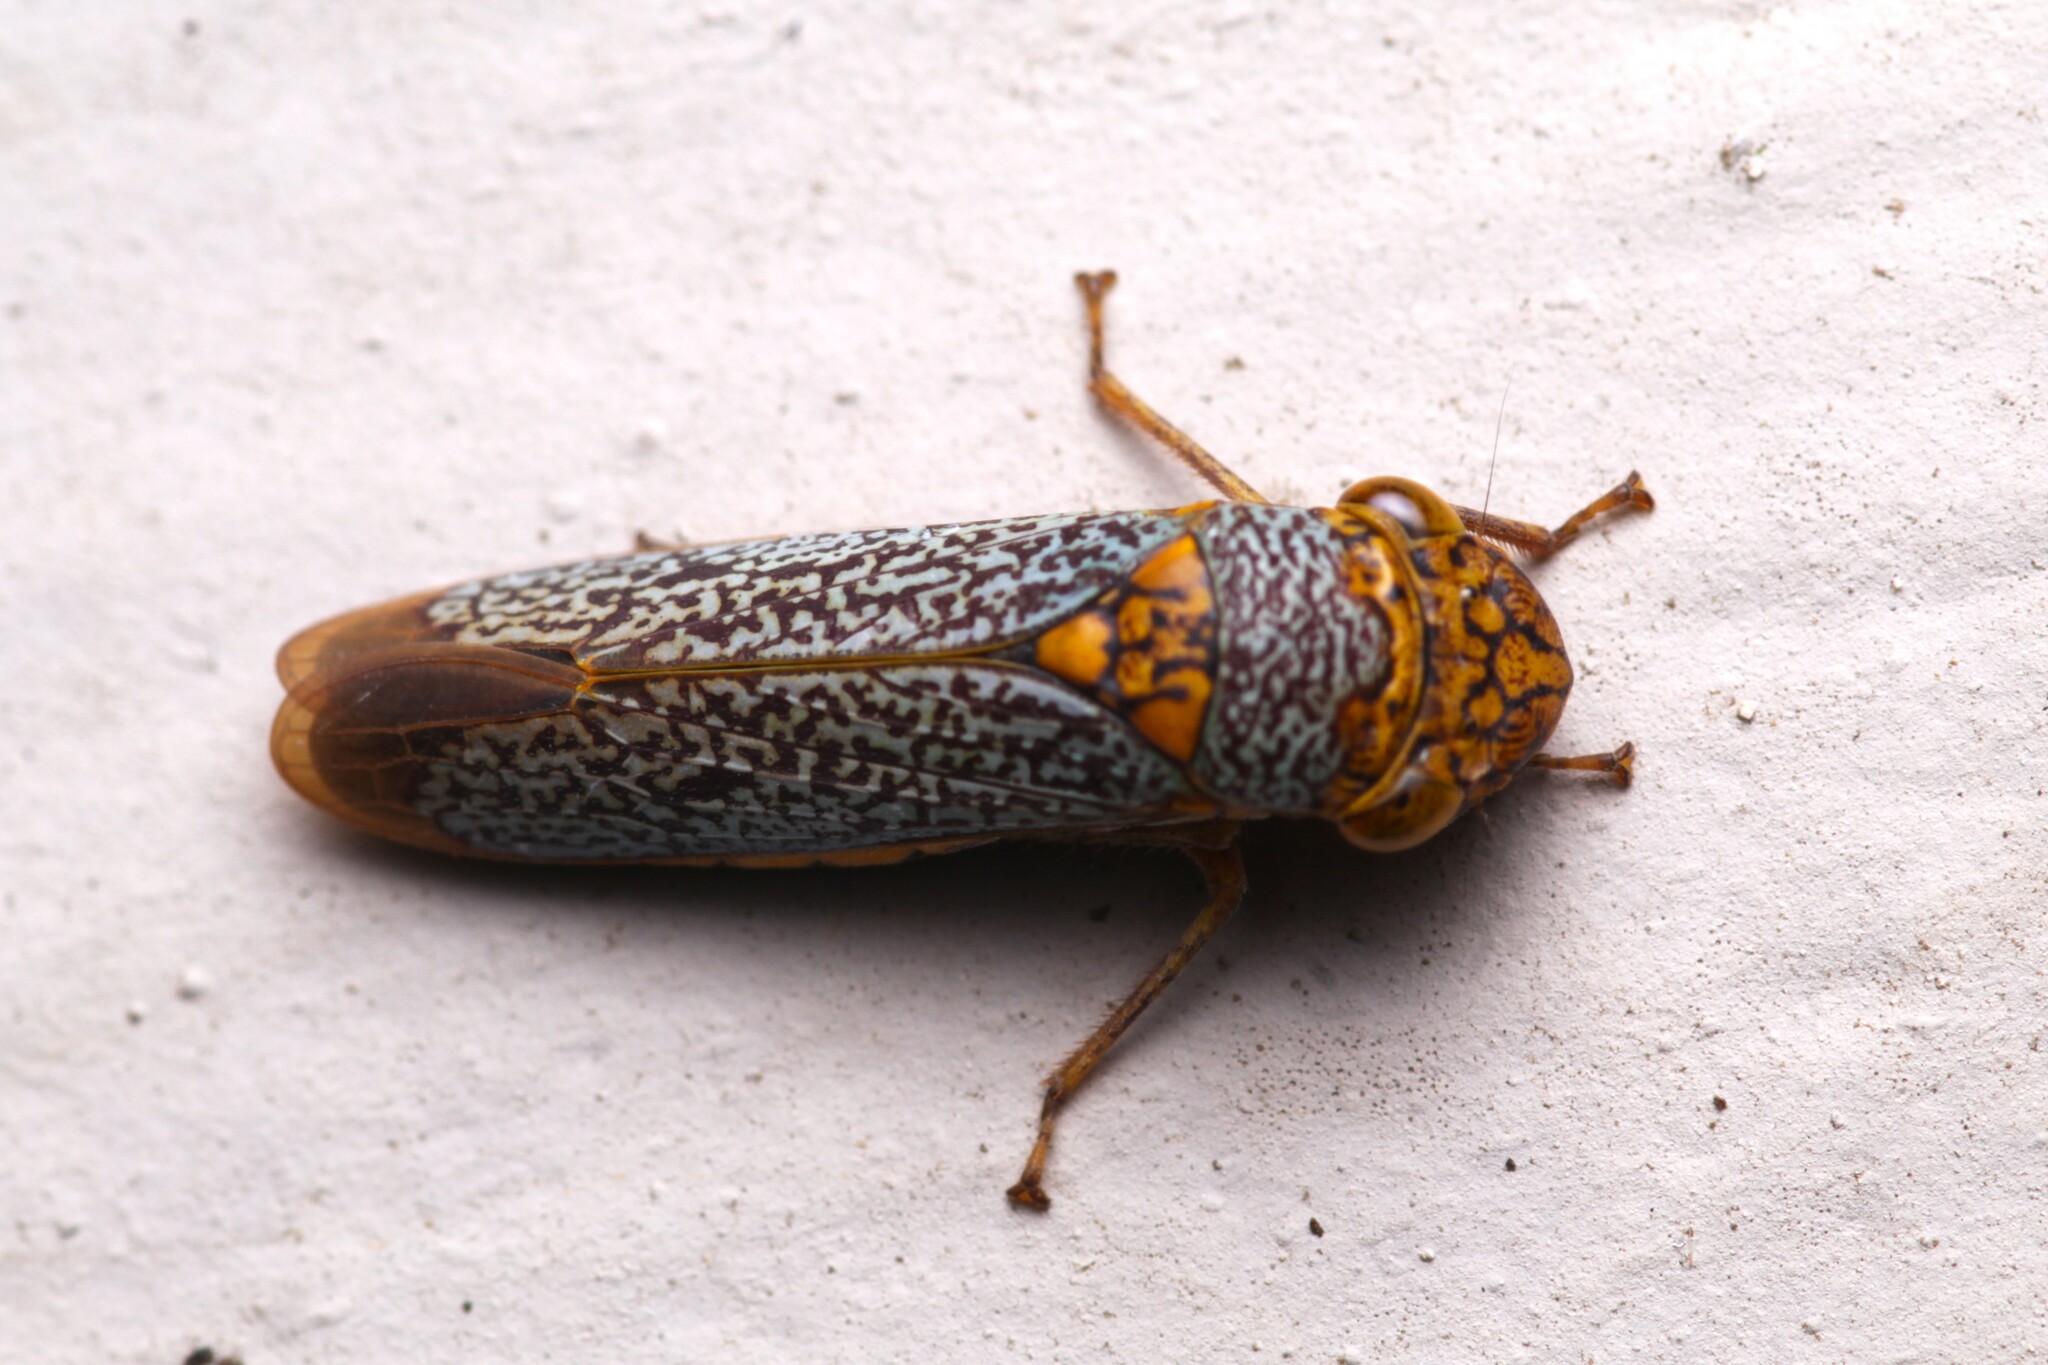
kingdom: Animalia
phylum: Arthropoda
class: Insecta
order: Hemiptera
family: Cicadellidae
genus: Oncometopia
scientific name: Oncometopia orbona
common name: Broad-headed sharpshooter
